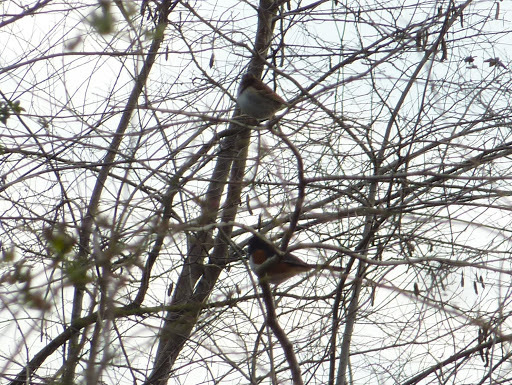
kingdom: Animalia
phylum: Chordata
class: Aves
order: Passeriformes
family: Passerellidae
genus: Pipilo
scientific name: Pipilo erythrophthalmus
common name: Eastern towhee
